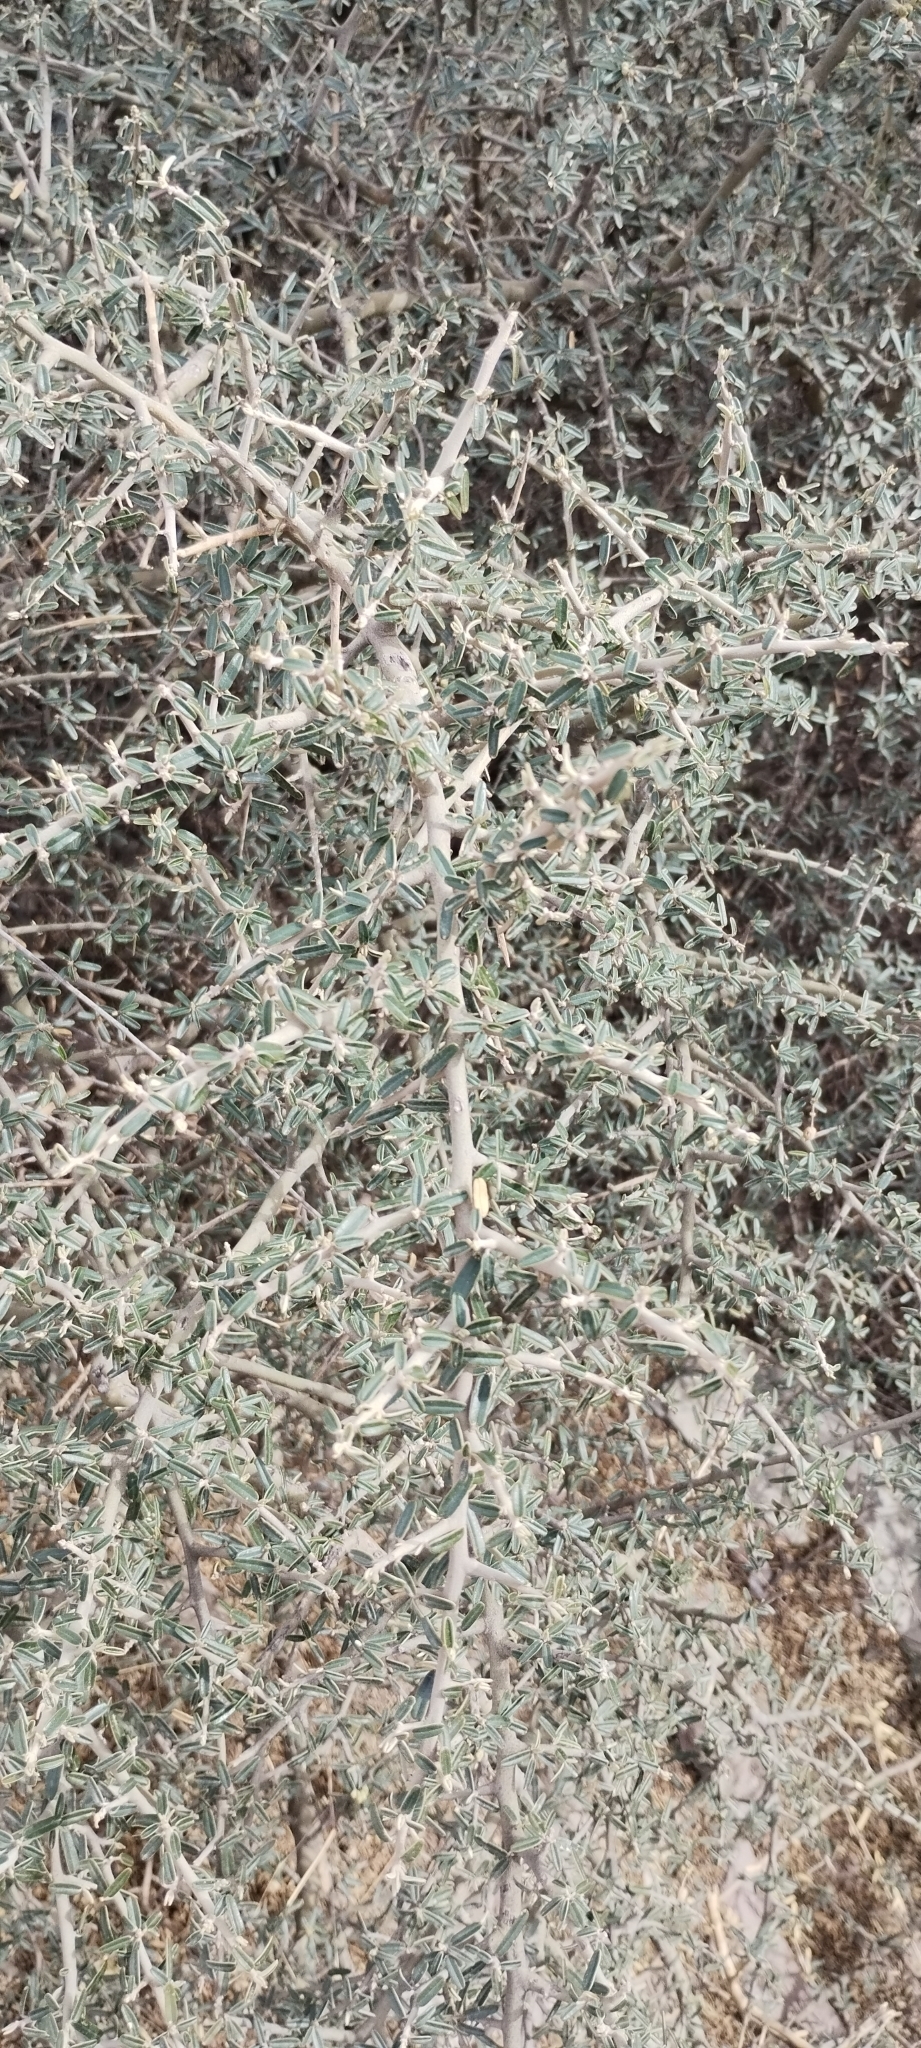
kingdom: Plantae
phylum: Tracheophyta
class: Magnoliopsida
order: Brassicales
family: Capparaceae
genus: Atamisquea
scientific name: Atamisquea emarginata
